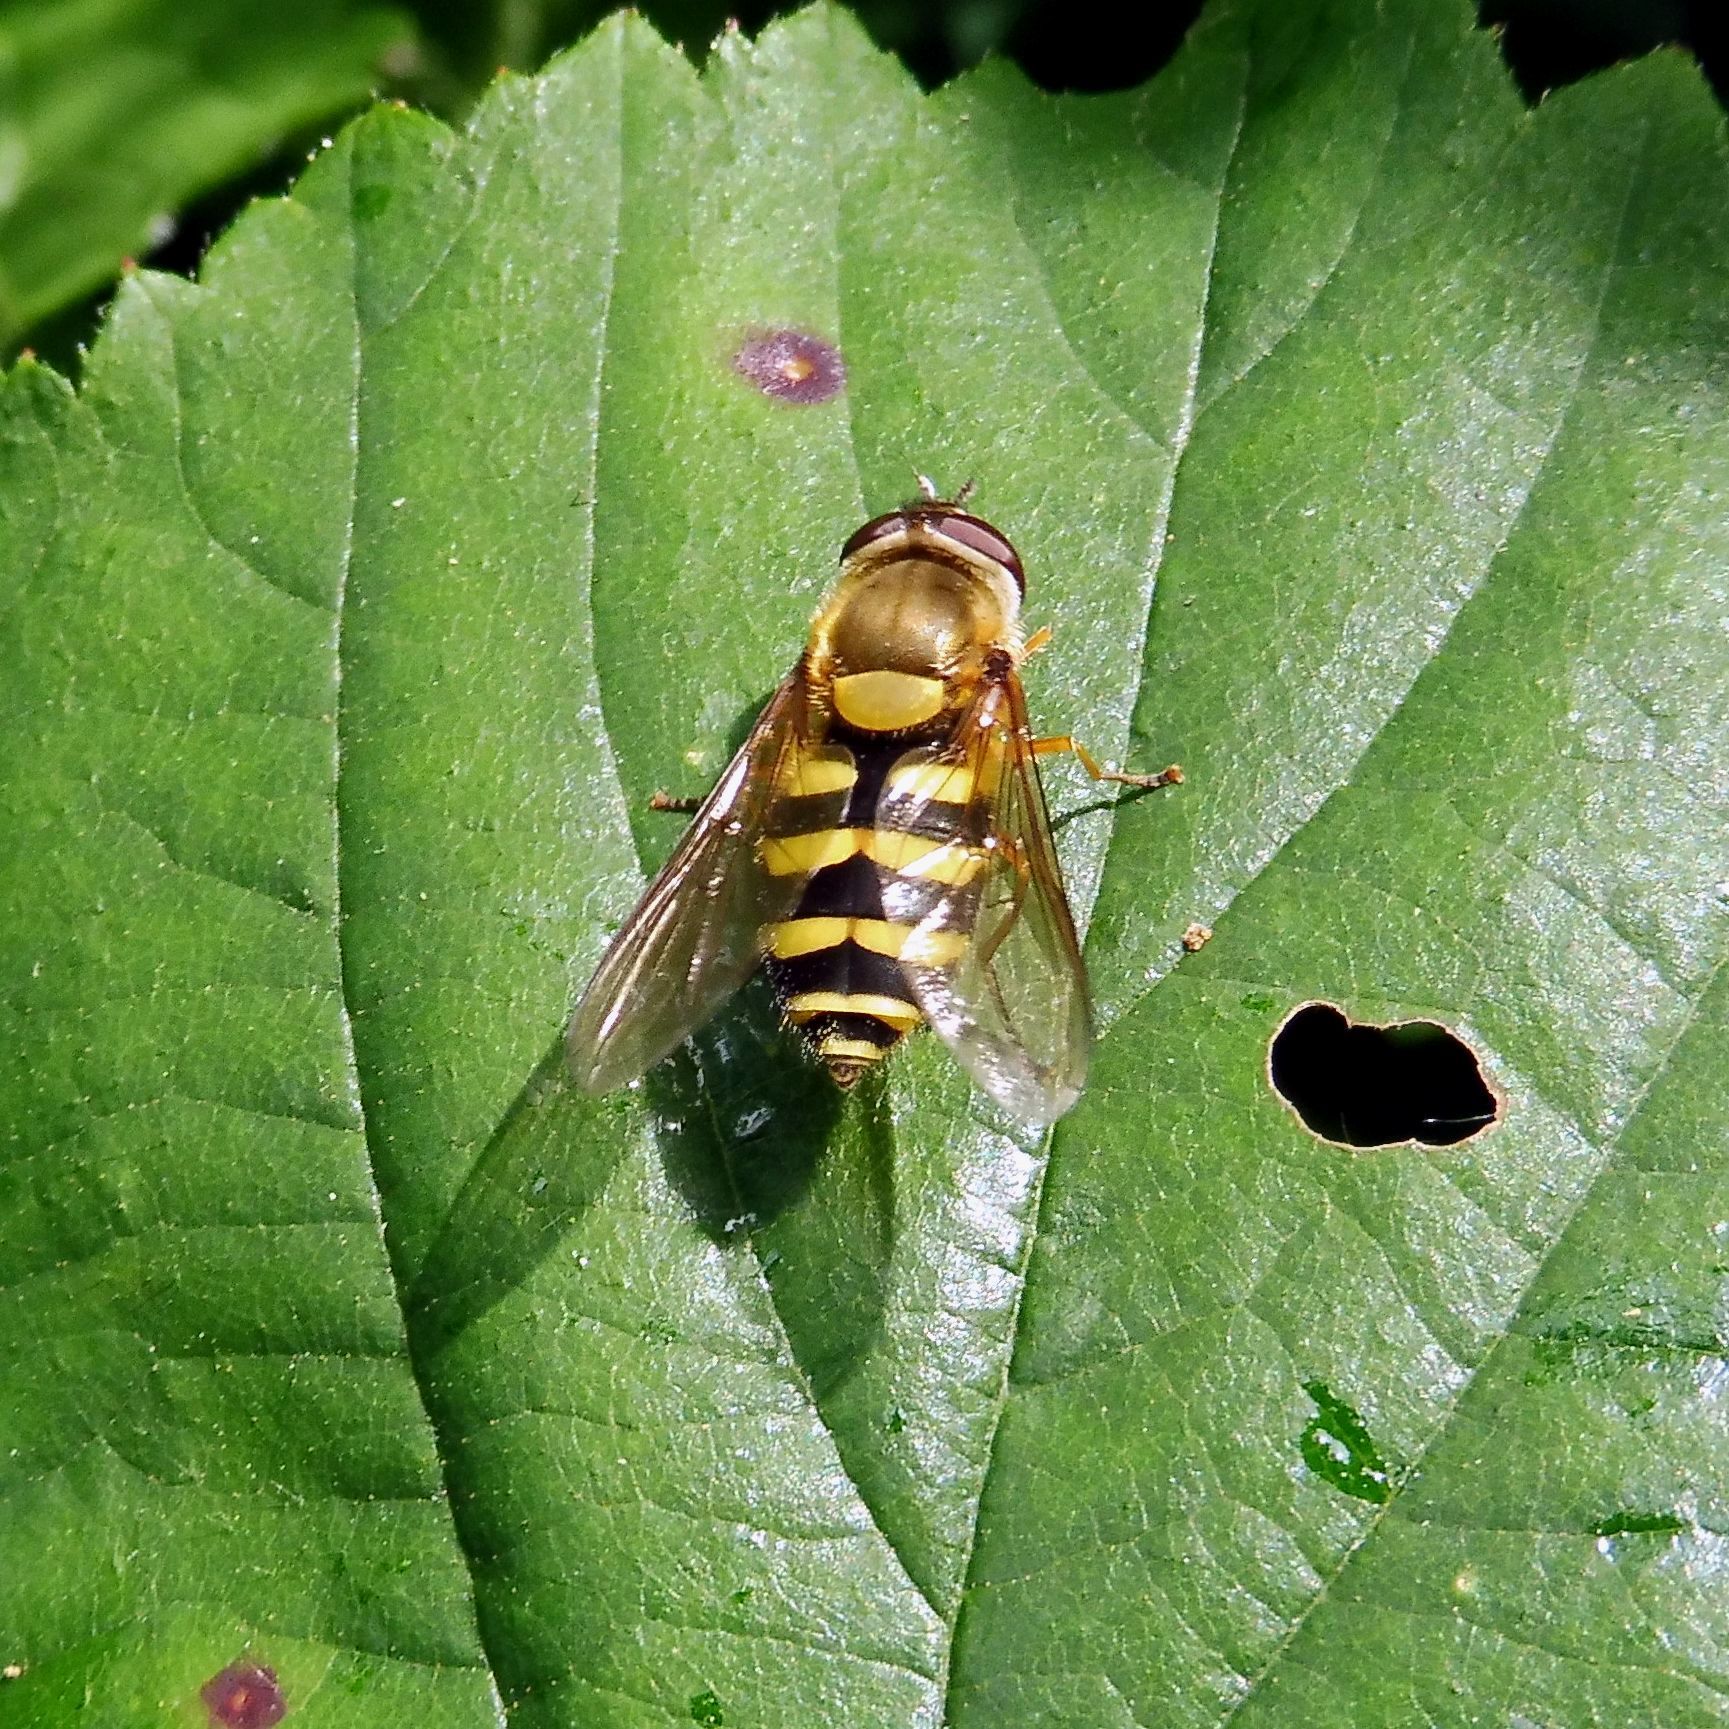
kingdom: Animalia
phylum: Arthropoda
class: Insecta
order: Diptera
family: Syrphidae
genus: Syrphus
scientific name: Syrphus
